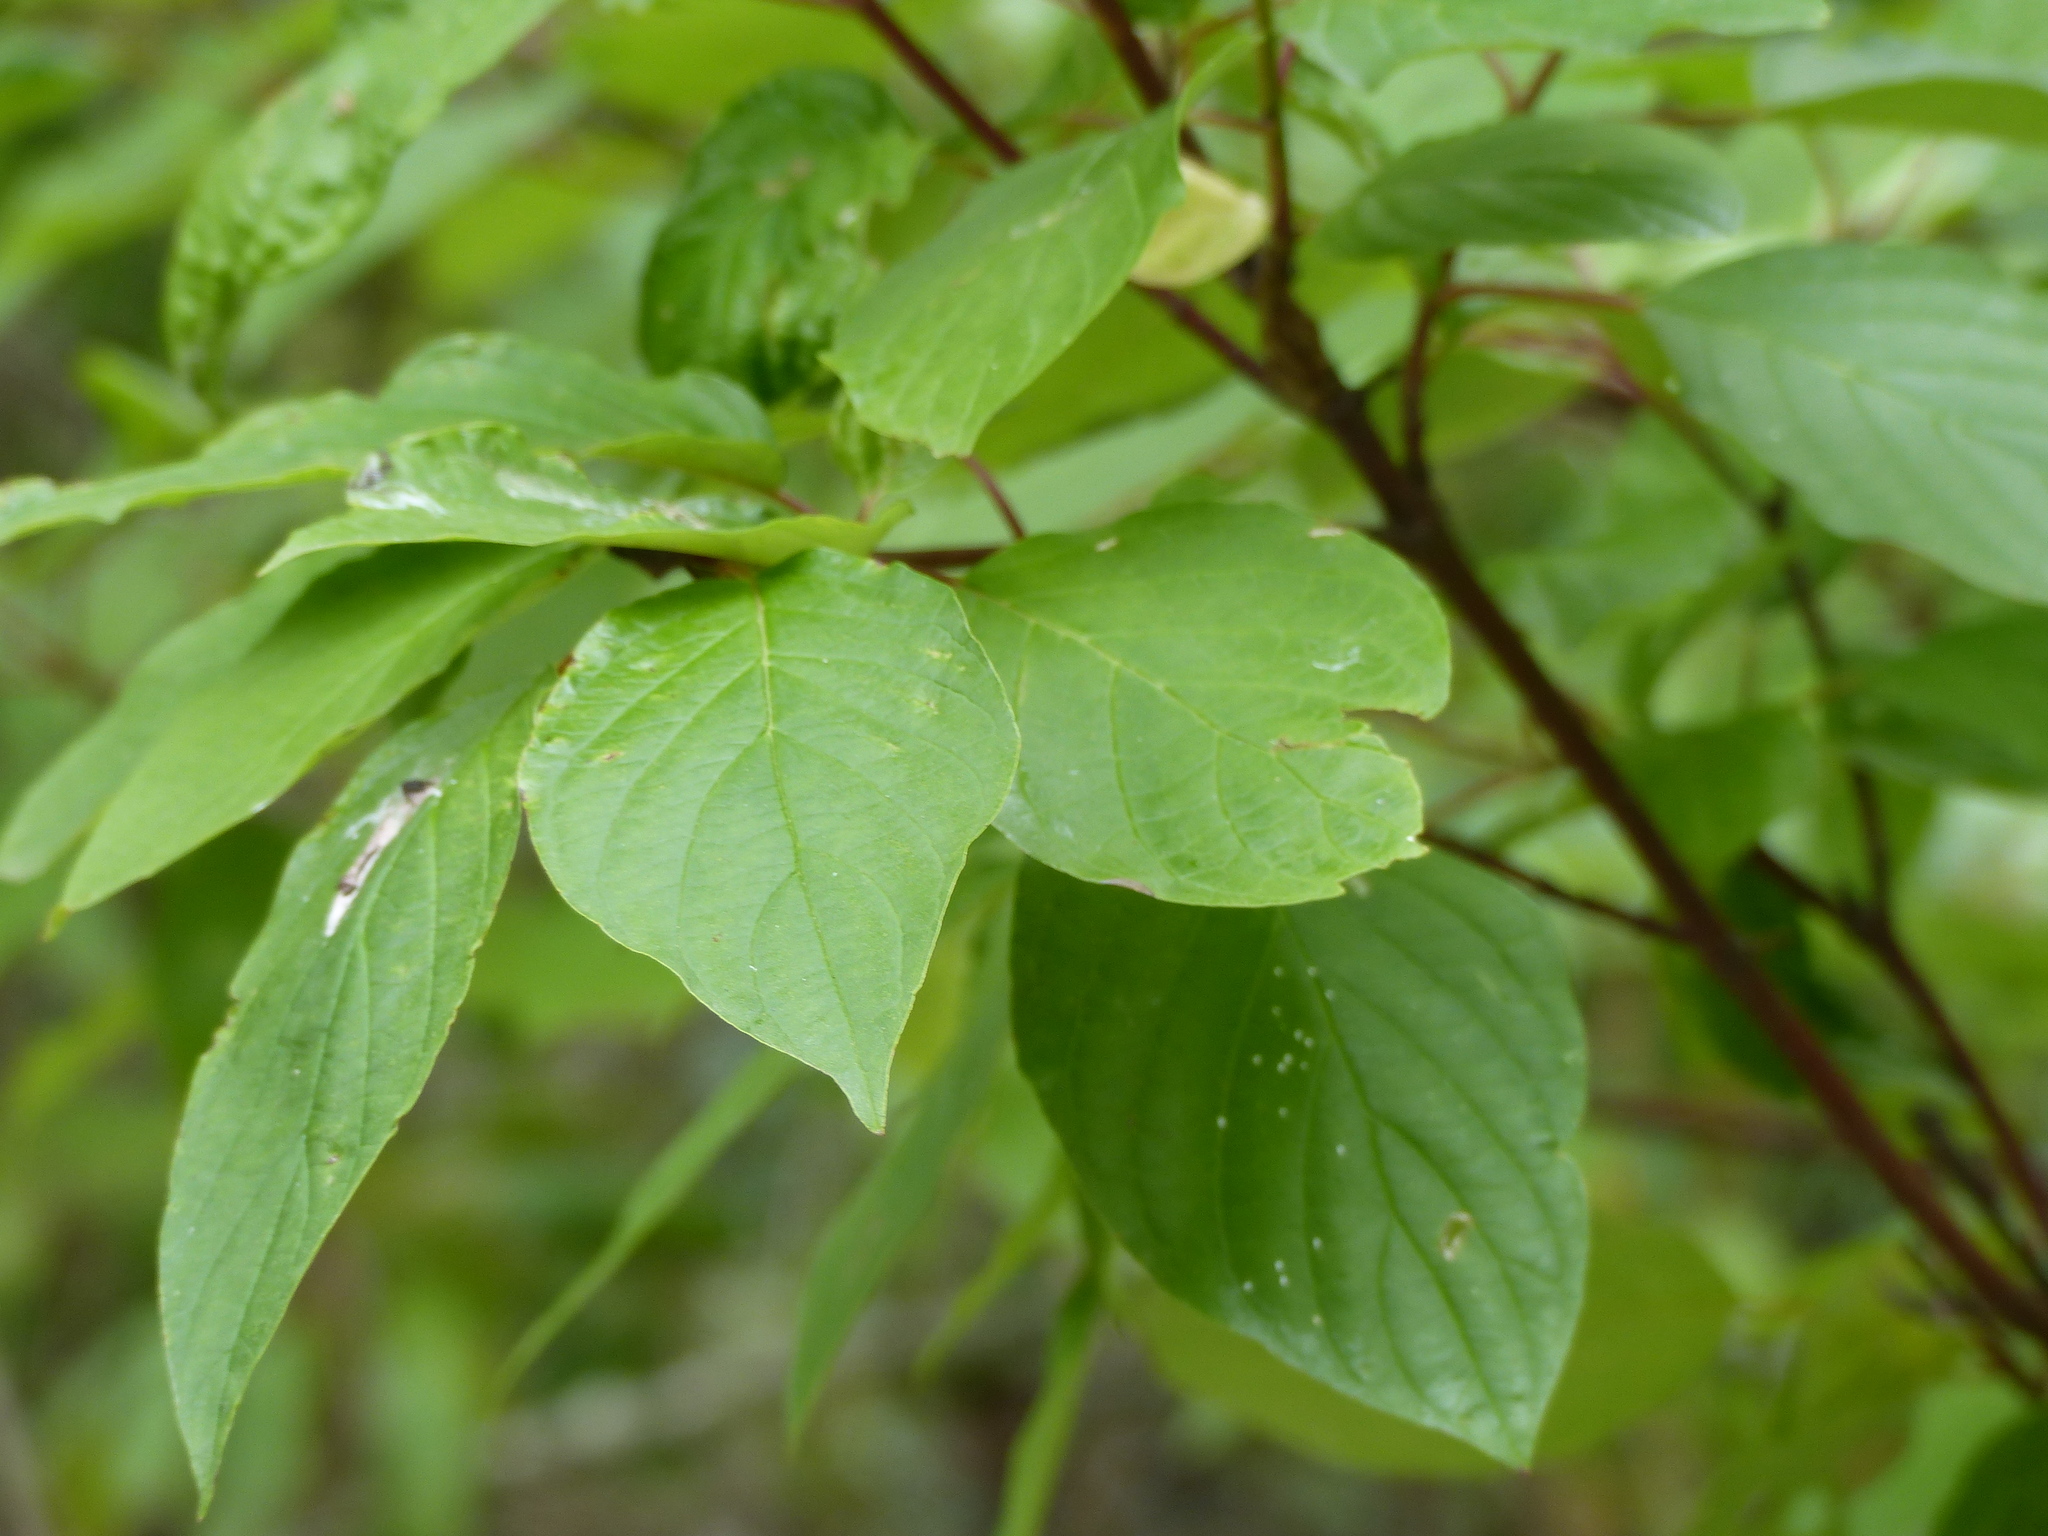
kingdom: Plantae
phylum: Tracheophyta
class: Magnoliopsida
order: Cornales
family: Cornaceae
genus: Cornus
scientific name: Cornus sericea
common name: Red-osier dogwood
